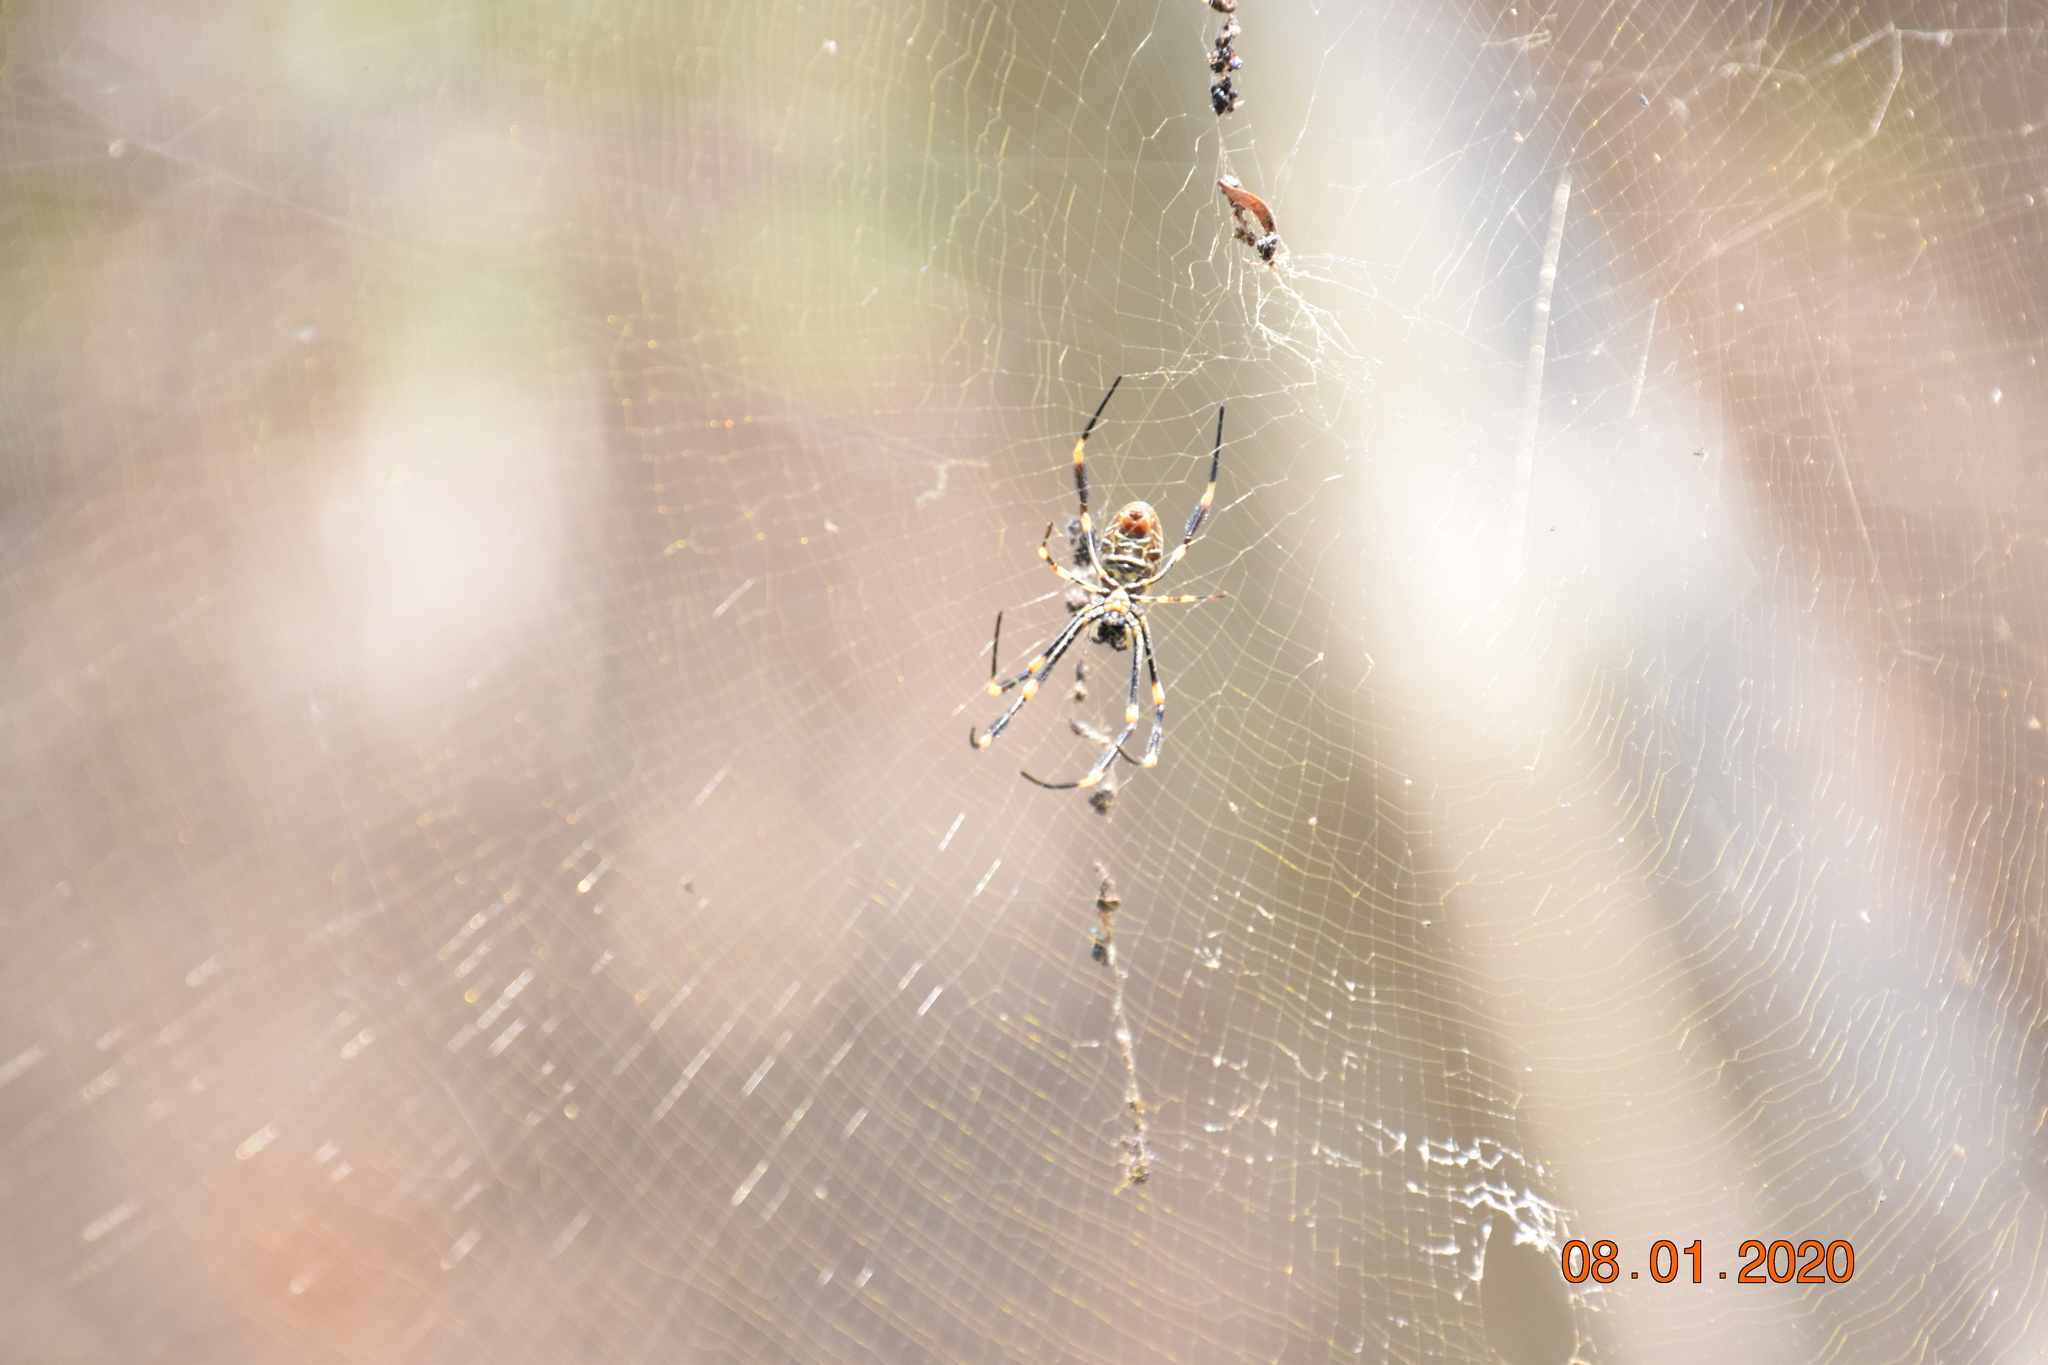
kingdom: Animalia
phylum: Arthropoda
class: Arachnida
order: Araneae
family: Araneidae
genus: Trichonephila
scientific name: Trichonephila plumipes
